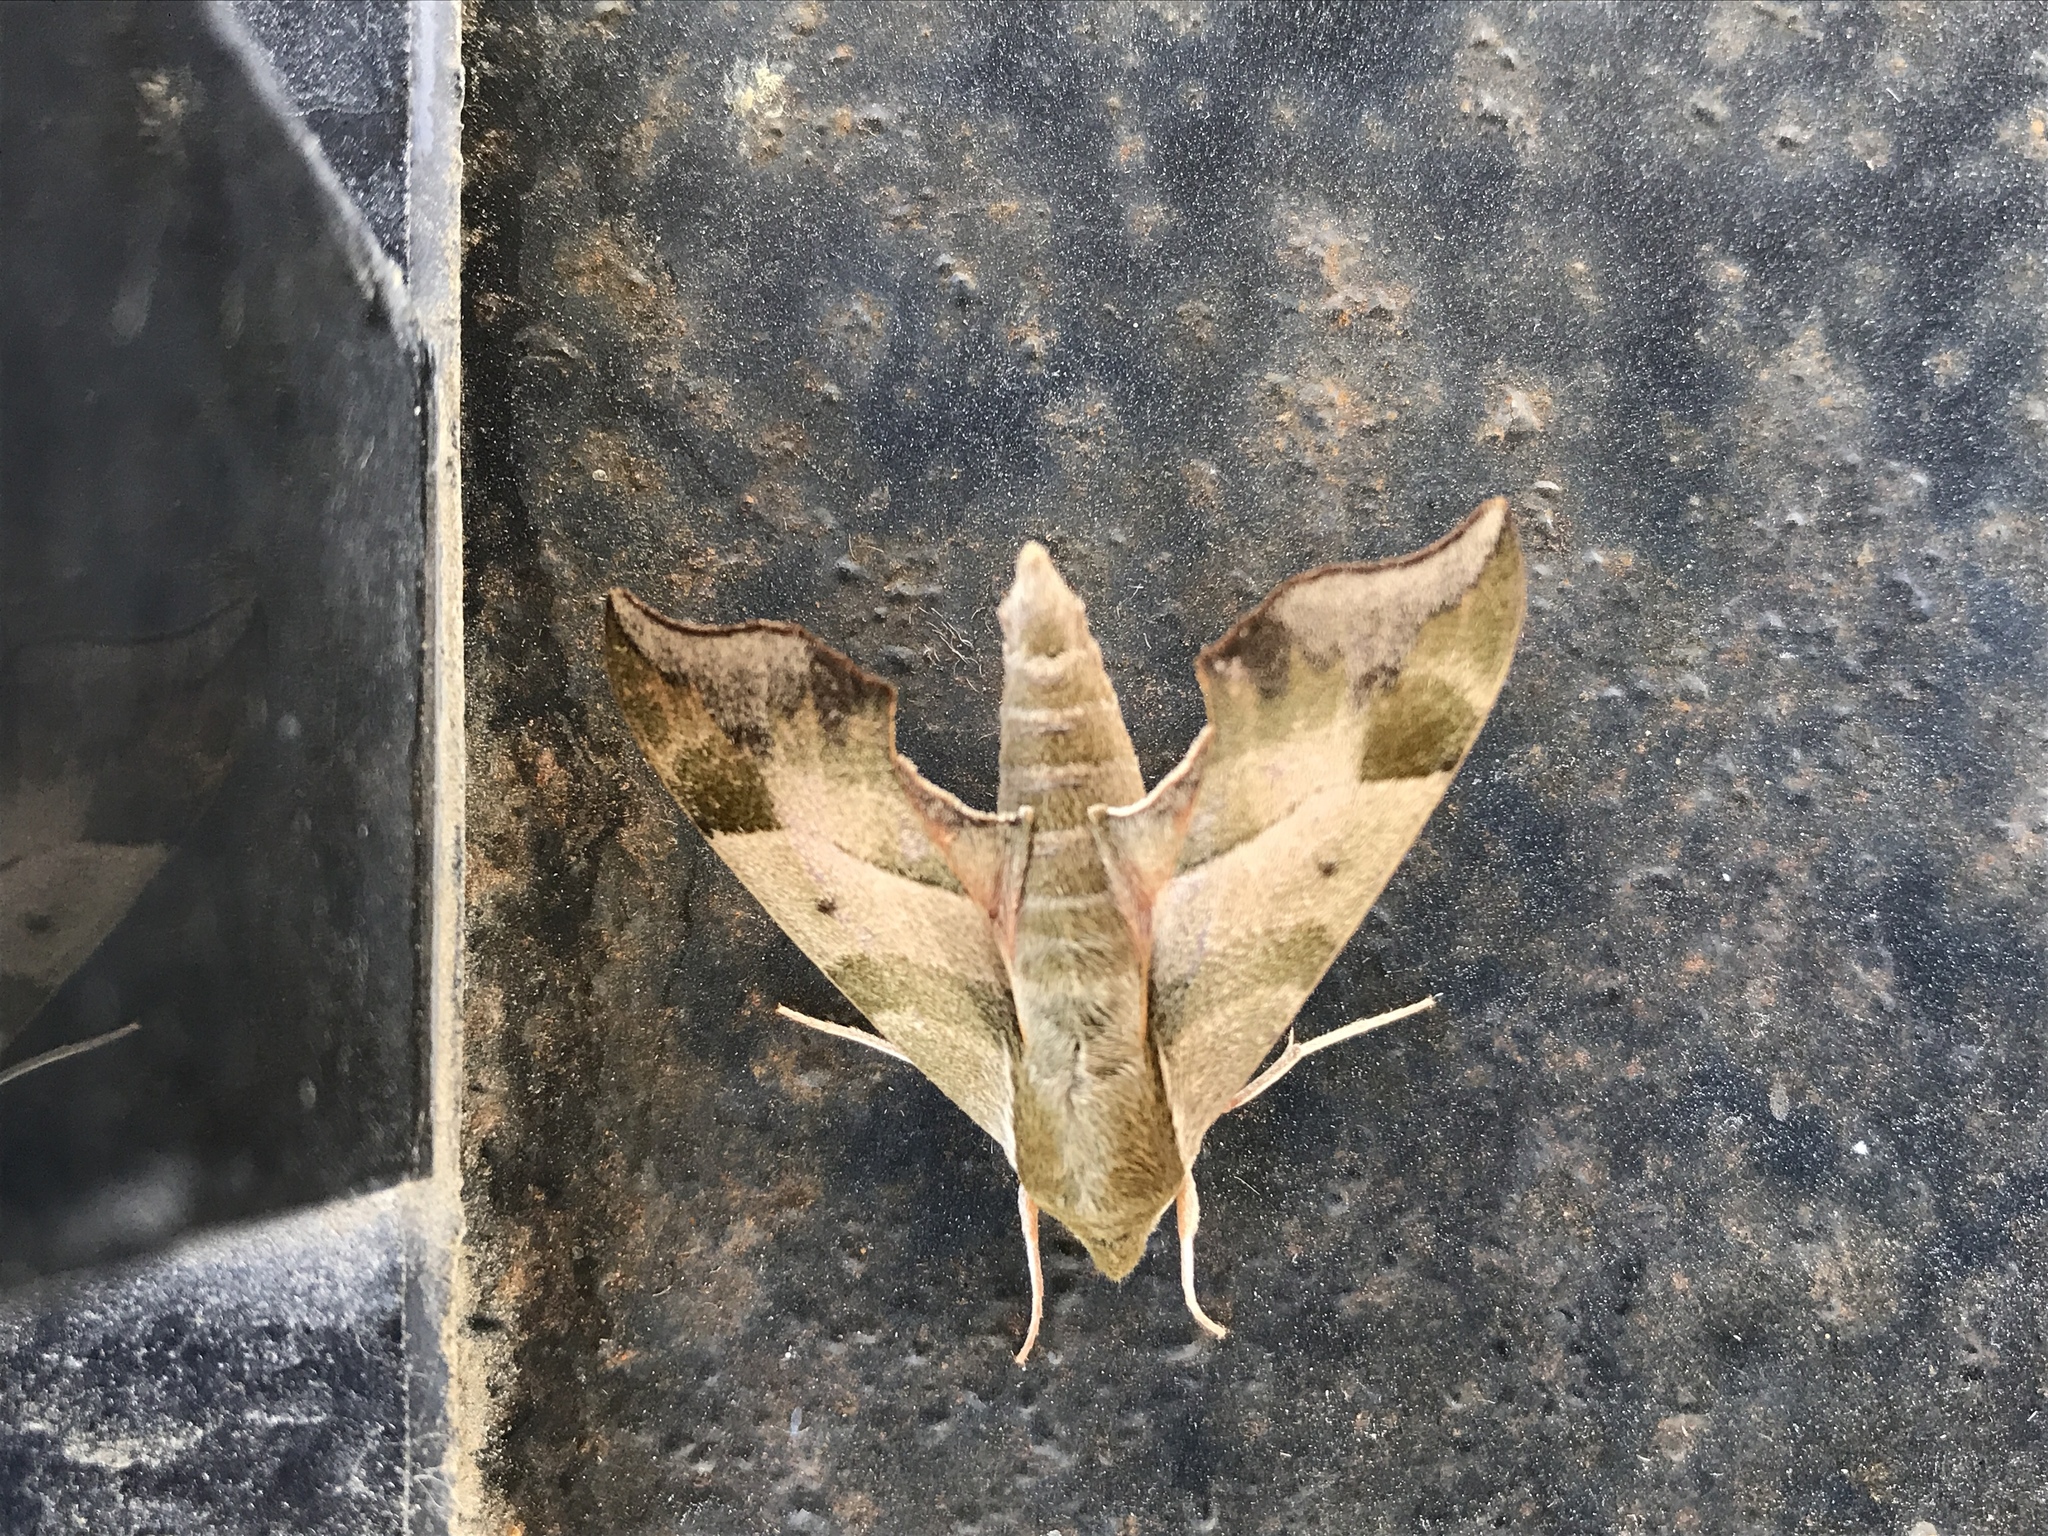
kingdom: Animalia
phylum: Arthropoda
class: Insecta
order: Lepidoptera
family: Sphingidae
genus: Darapsa
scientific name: Darapsa myron
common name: Hog sphinx
